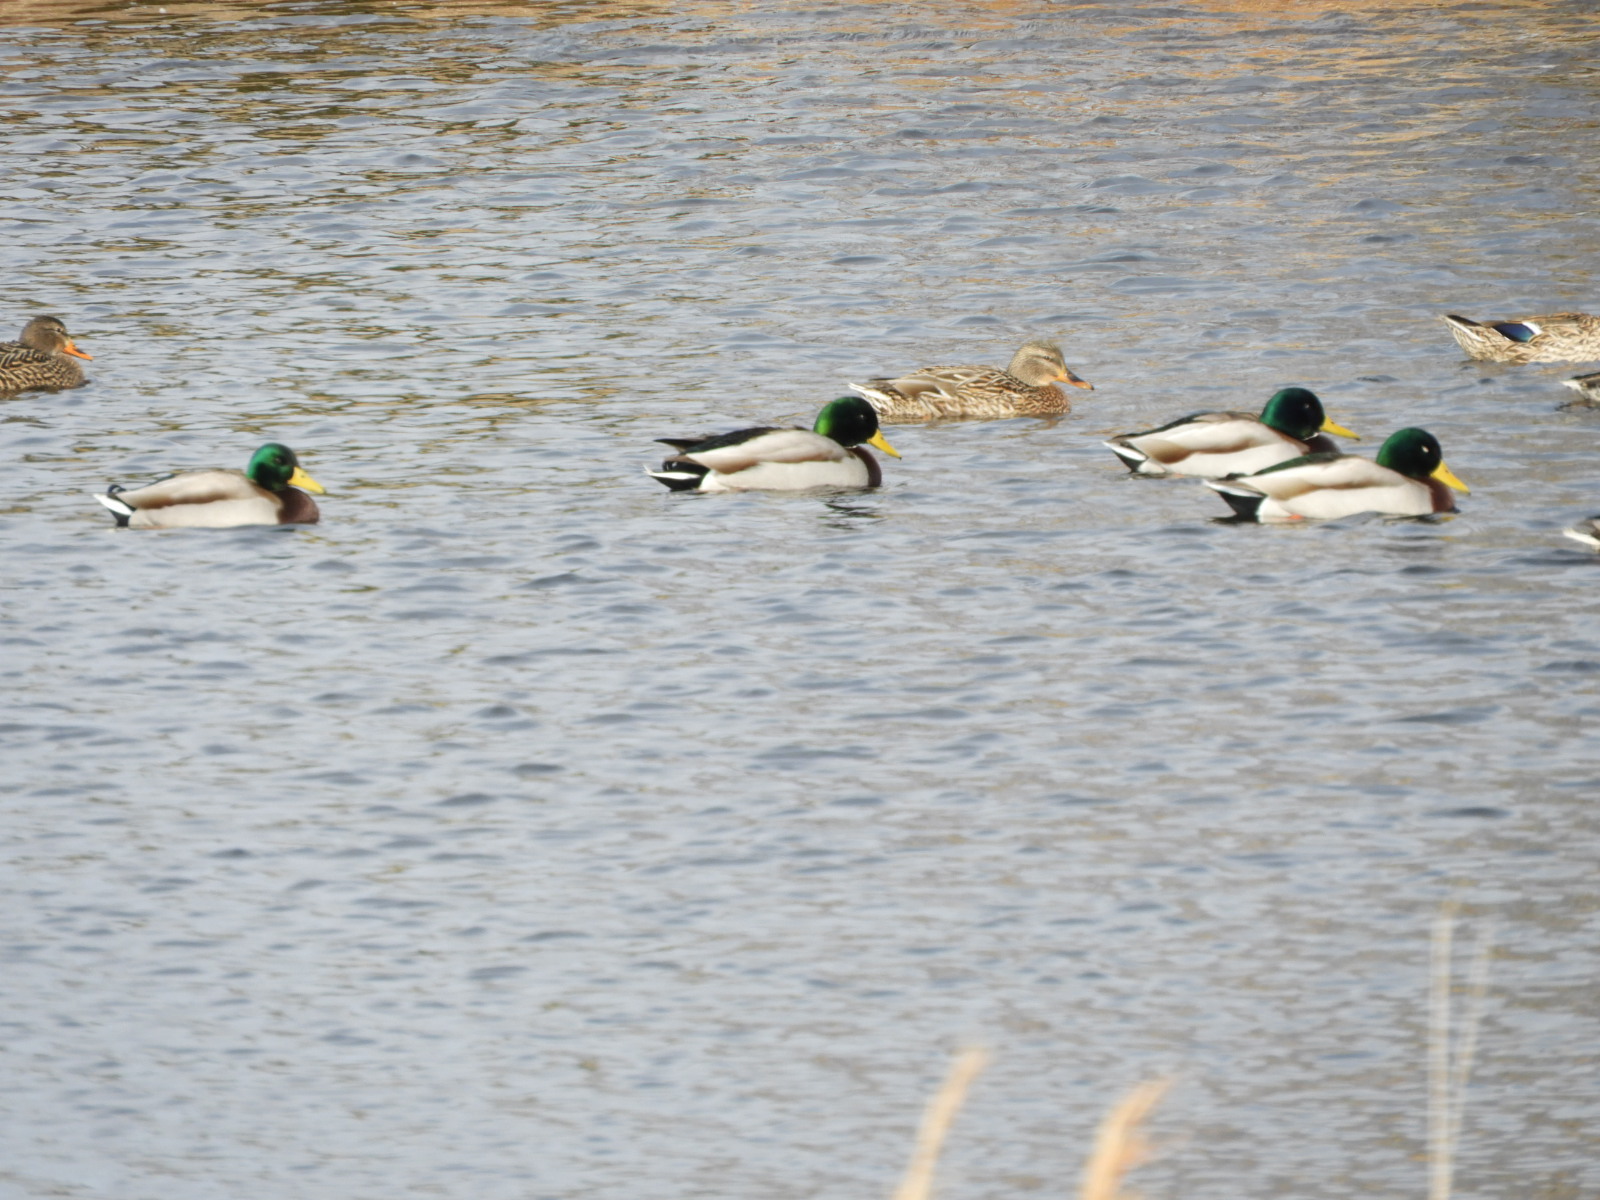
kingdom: Animalia
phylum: Chordata
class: Aves
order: Anseriformes
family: Anatidae
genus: Anas
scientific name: Anas platyrhynchos
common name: Mallard
